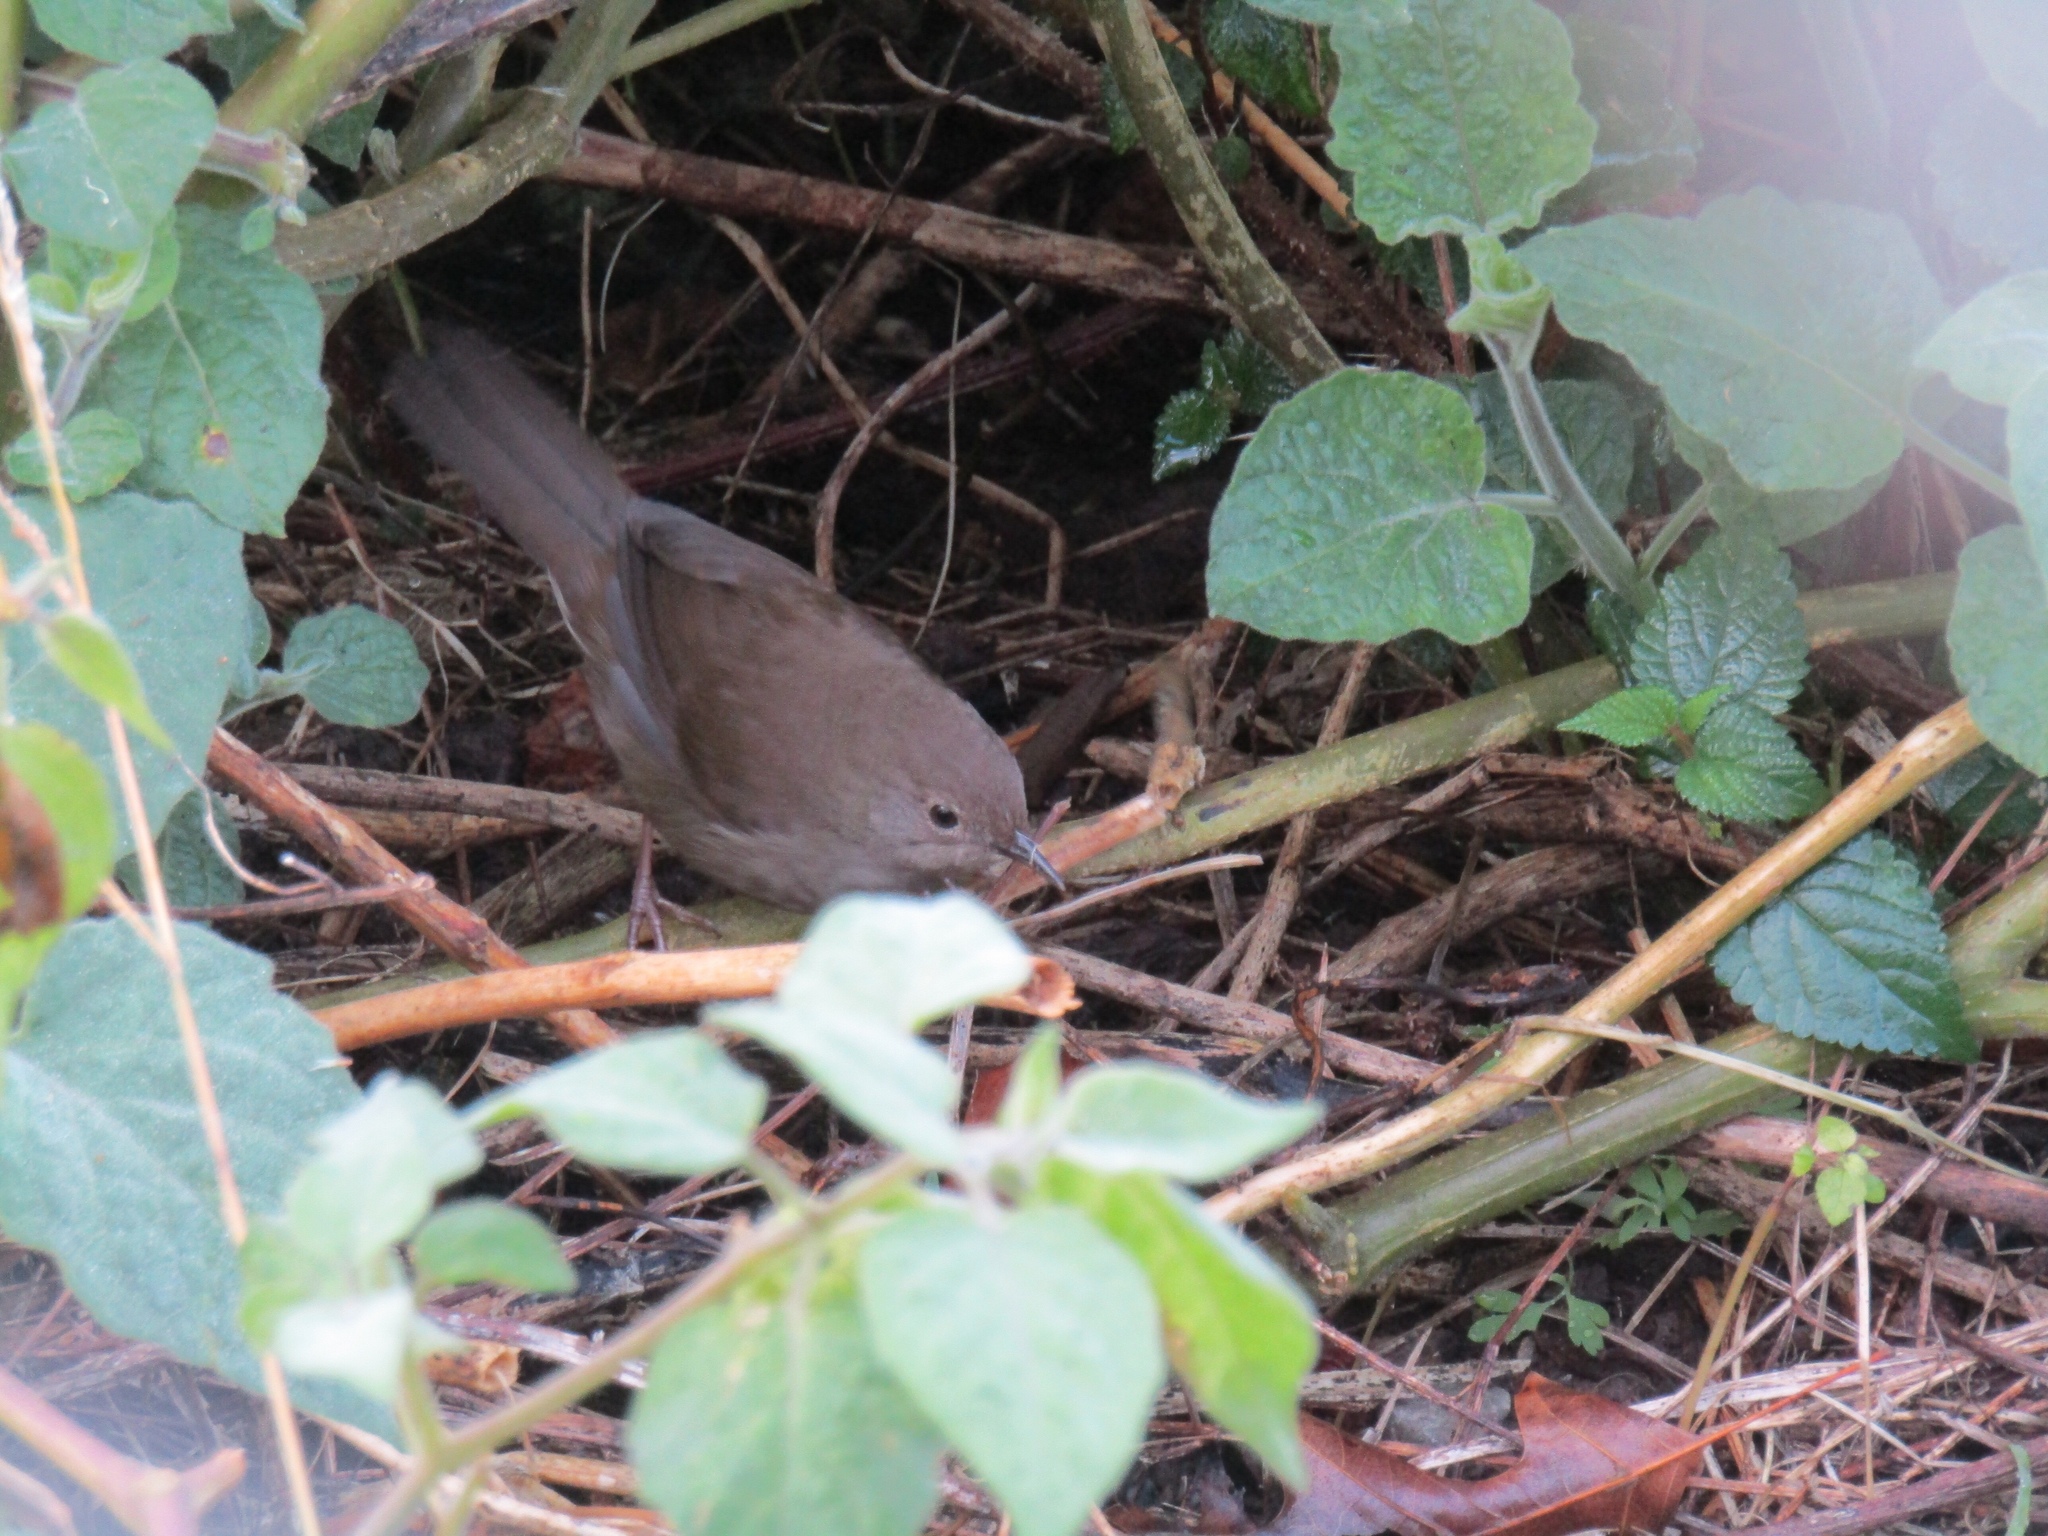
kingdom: Animalia
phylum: Chordata
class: Aves
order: Passeriformes
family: Locustellidae
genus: Bradypterus
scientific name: Bradypterus sylvaticus
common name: Knysna warbler
